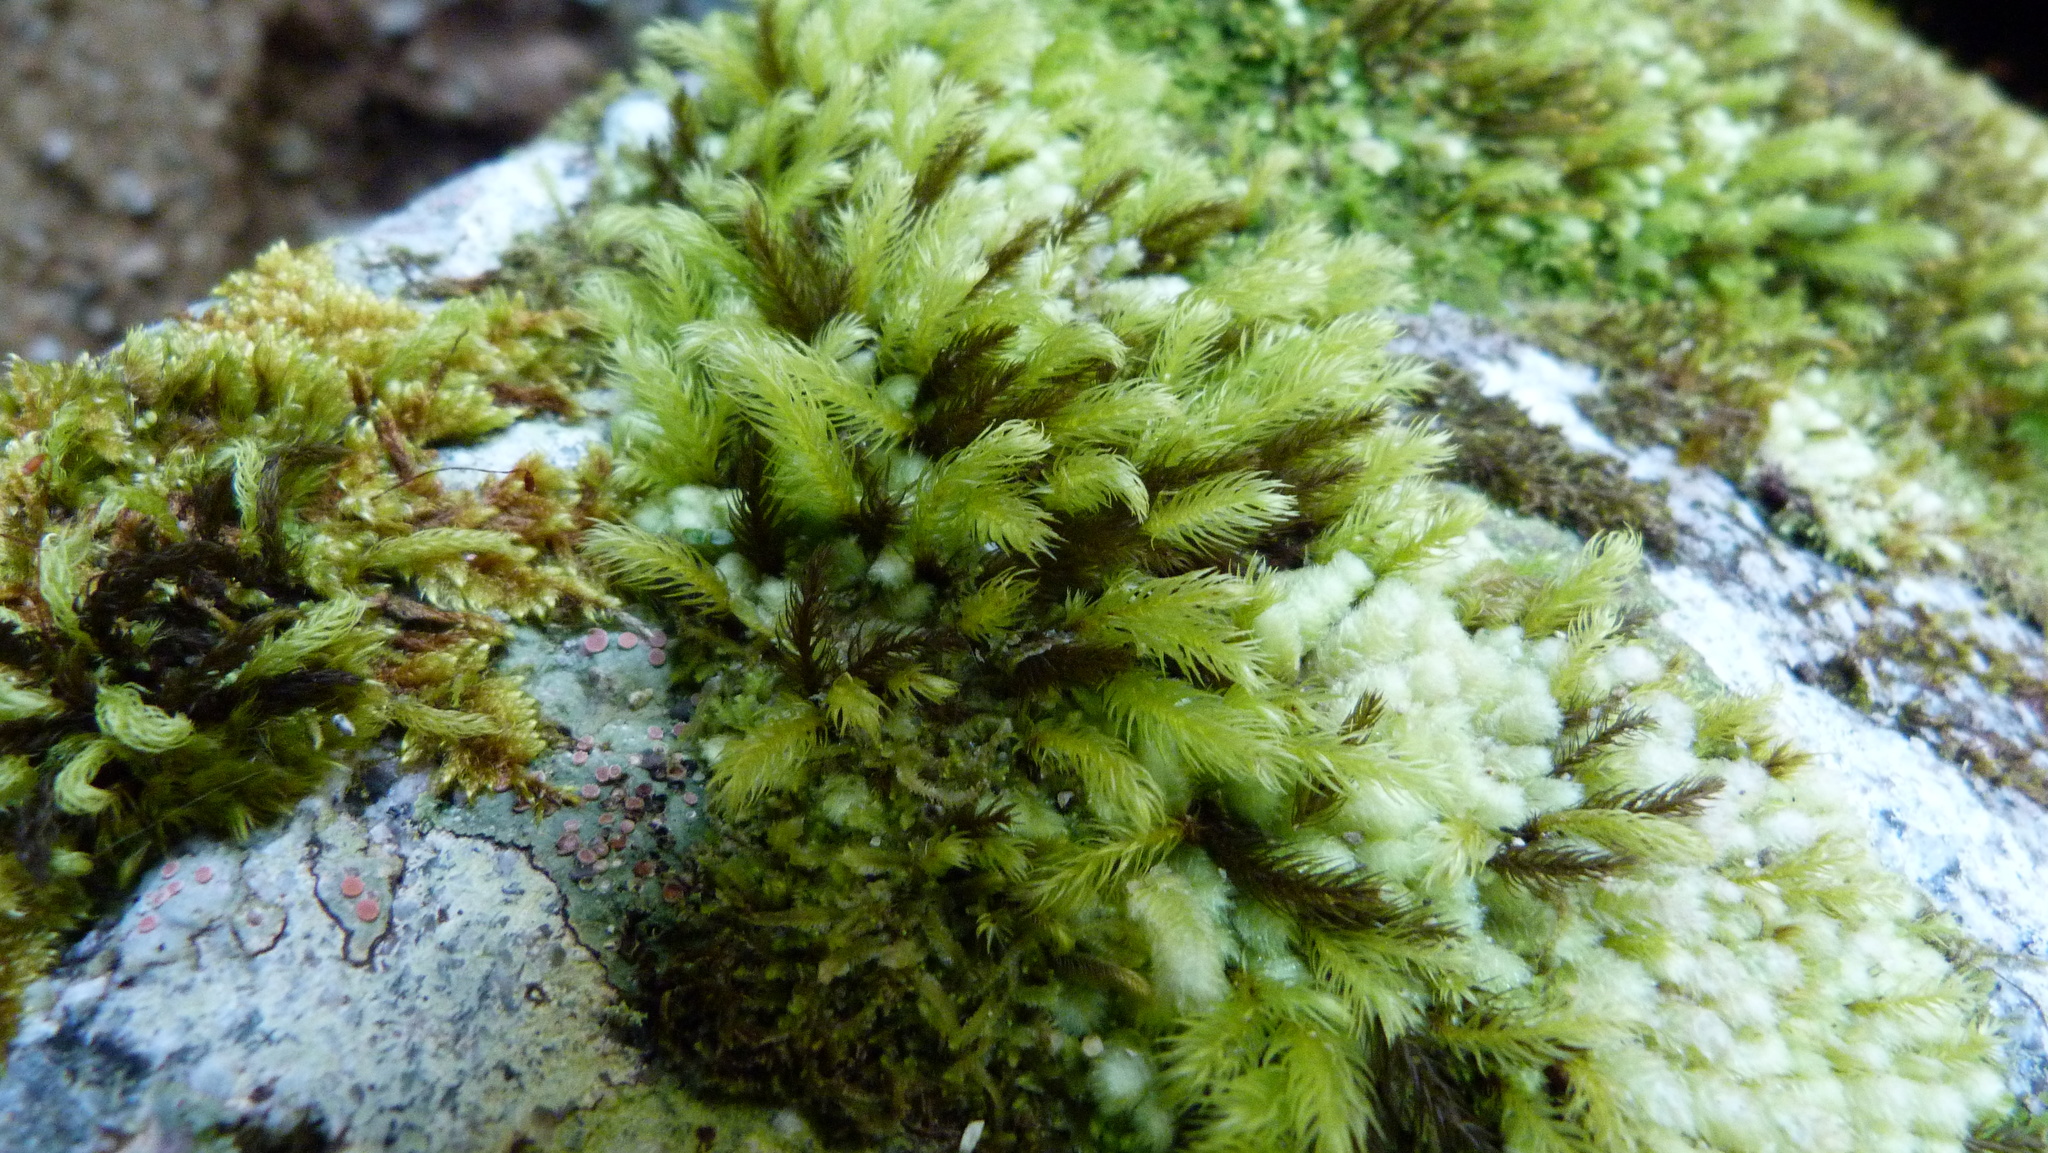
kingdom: Plantae
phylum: Bryophyta
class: Bryopsida
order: Aulacomniales
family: Aulacomniaceae
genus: Hymenodontopsis
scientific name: Hymenodontopsis mnioides
